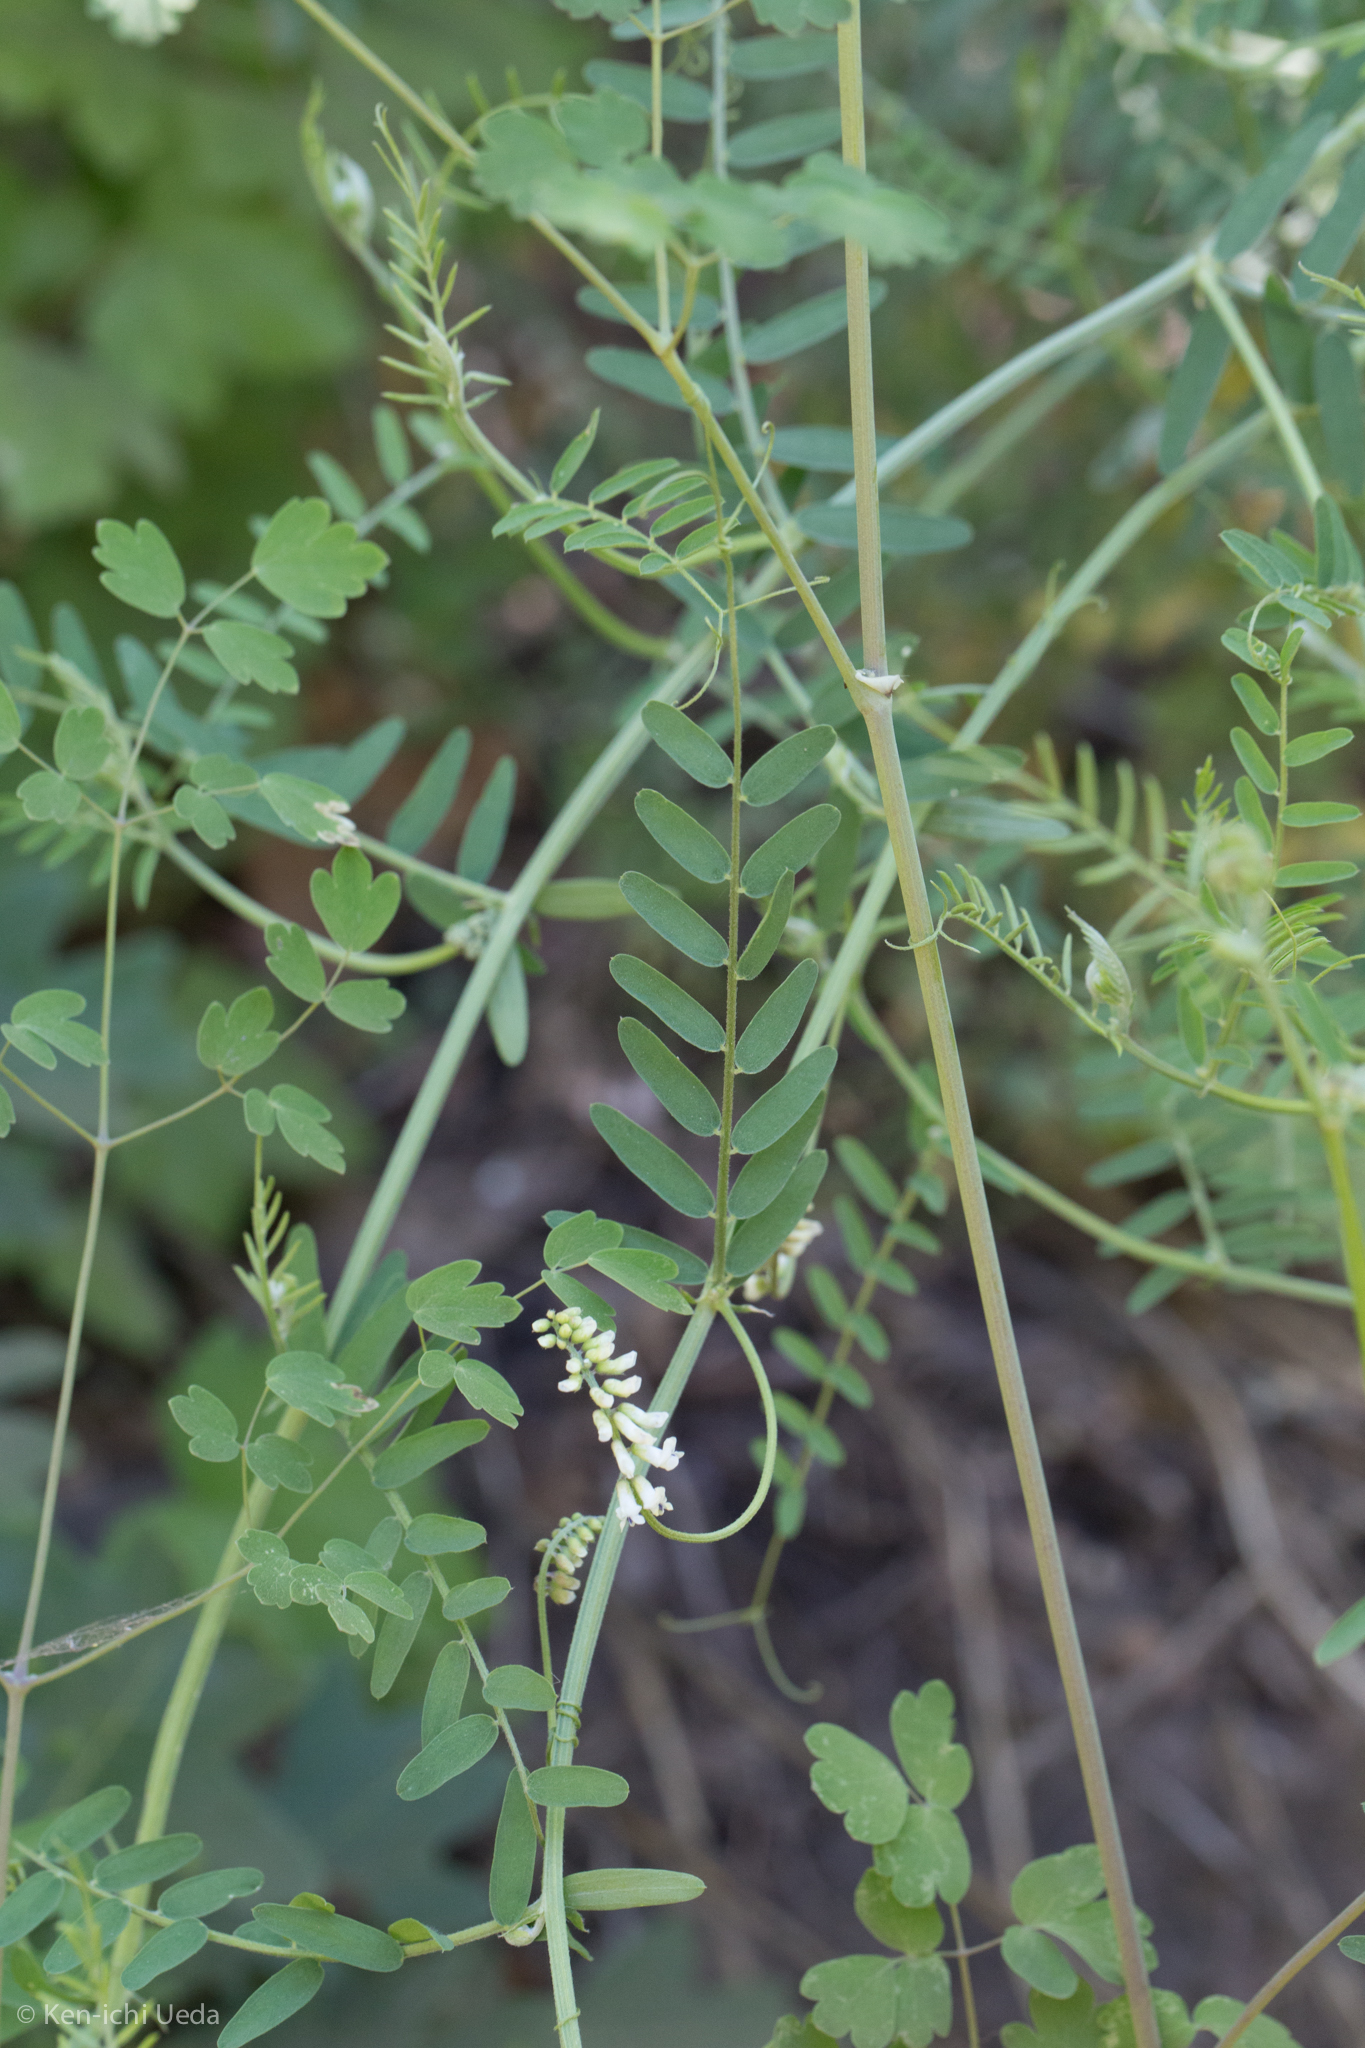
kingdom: Plantae
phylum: Tracheophyta
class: Magnoliopsida
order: Fabales
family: Fabaceae
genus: Vicia
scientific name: Vicia pulchella
